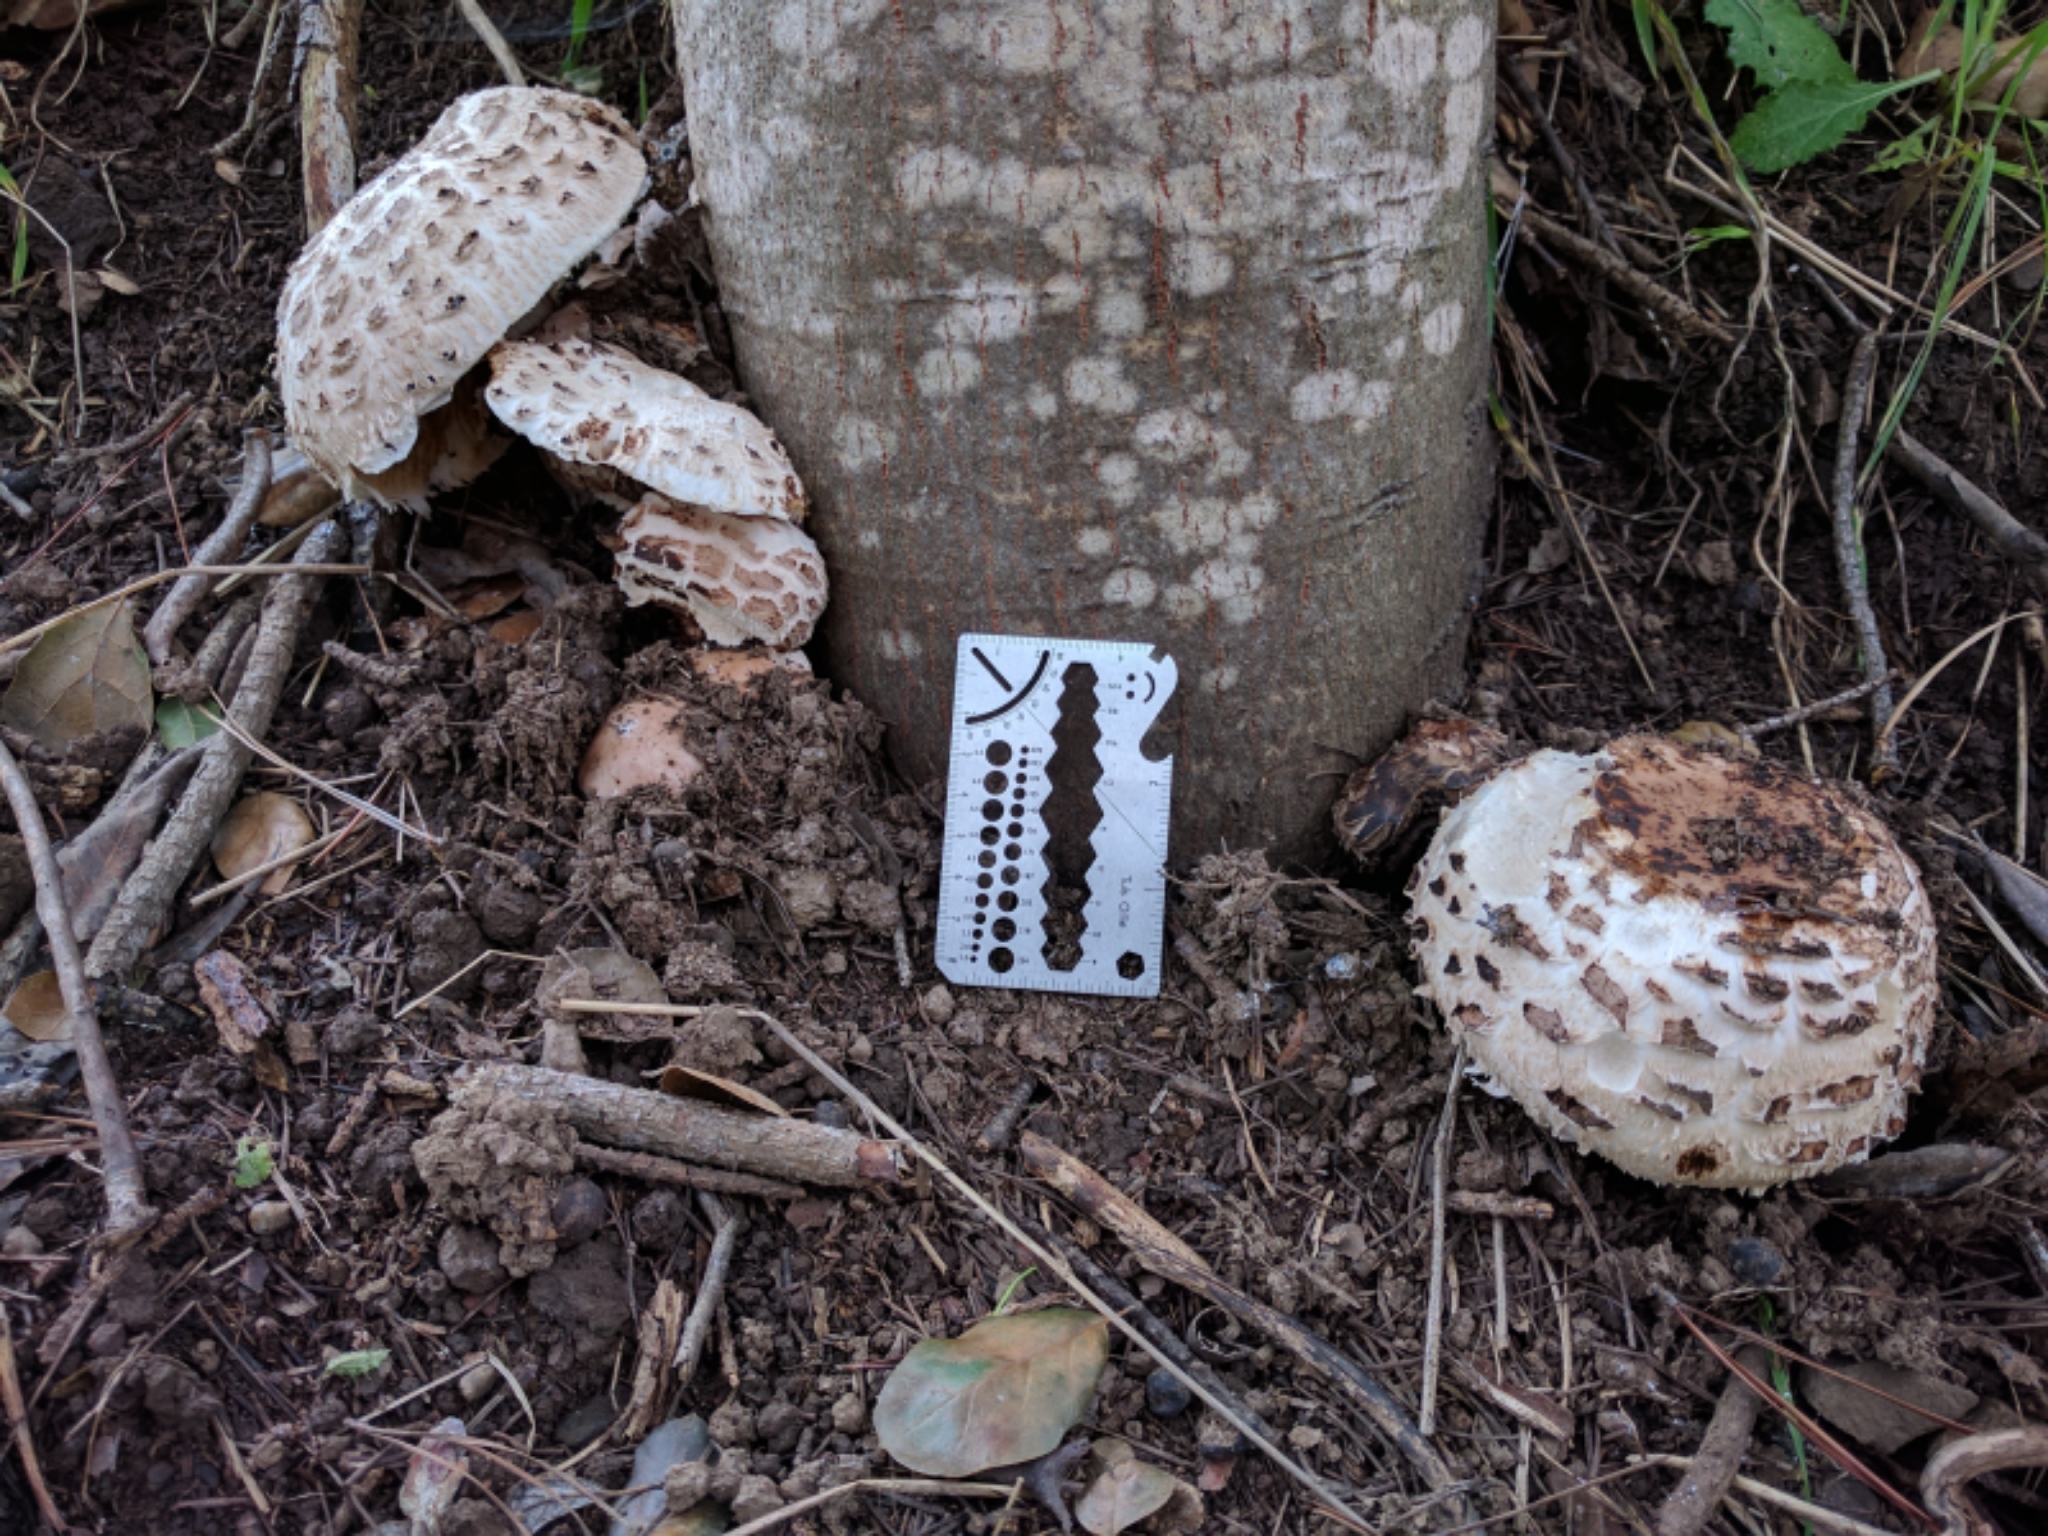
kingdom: Fungi
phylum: Basidiomycota
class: Agaricomycetes
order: Agaricales
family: Agaricaceae
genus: Chlorophyllum
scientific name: Chlorophyllum brunneum
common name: Brown parasol
